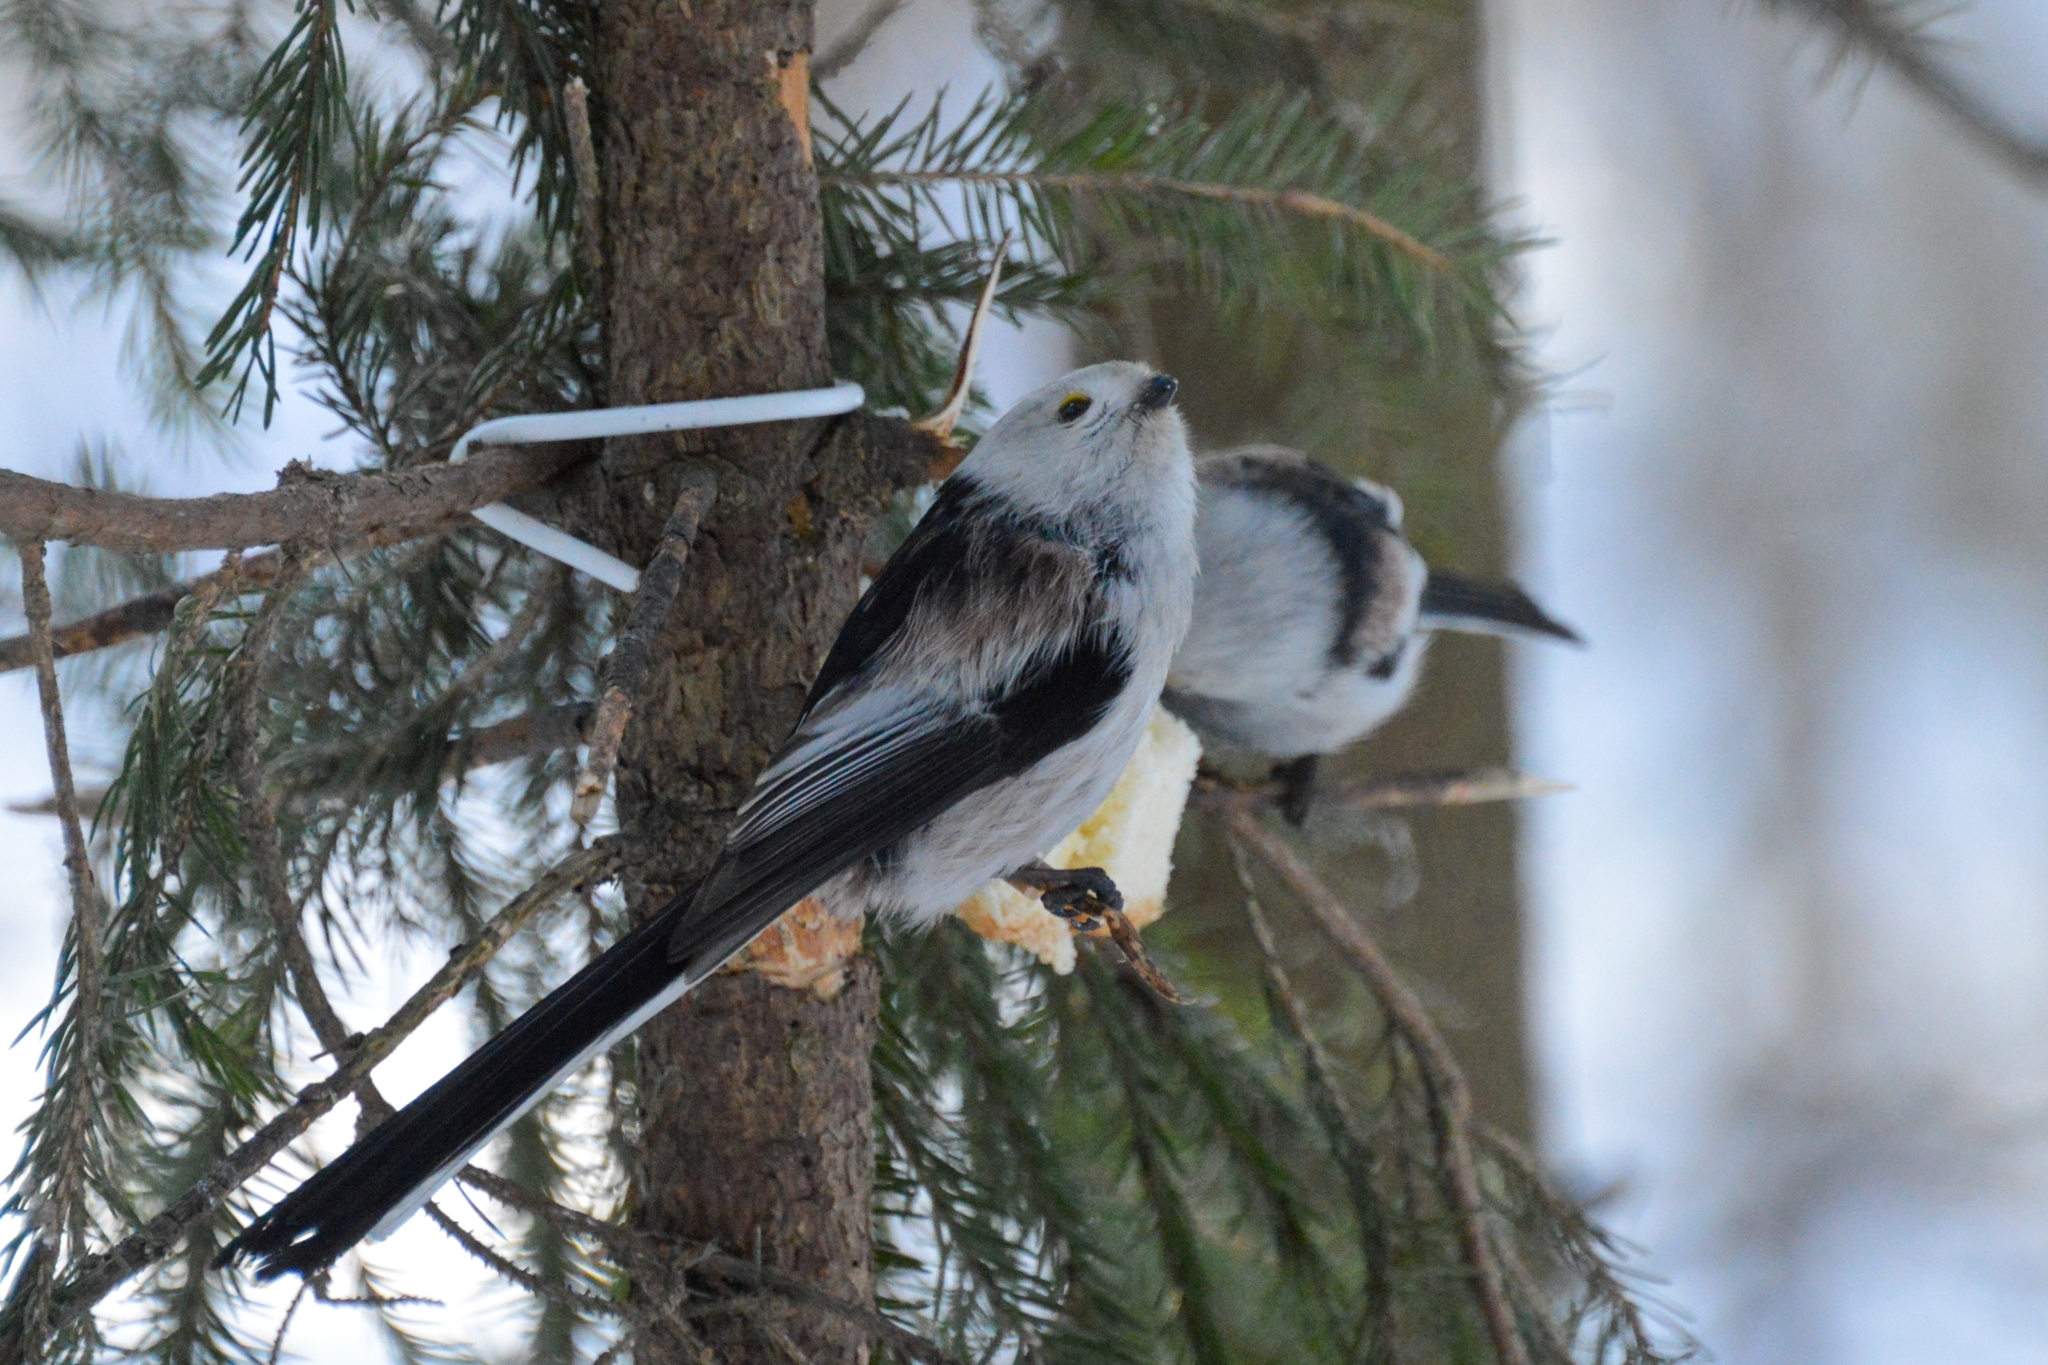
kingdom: Animalia
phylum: Chordata
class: Aves
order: Passeriformes
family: Aegithalidae
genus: Aegithalos
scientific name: Aegithalos caudatus
